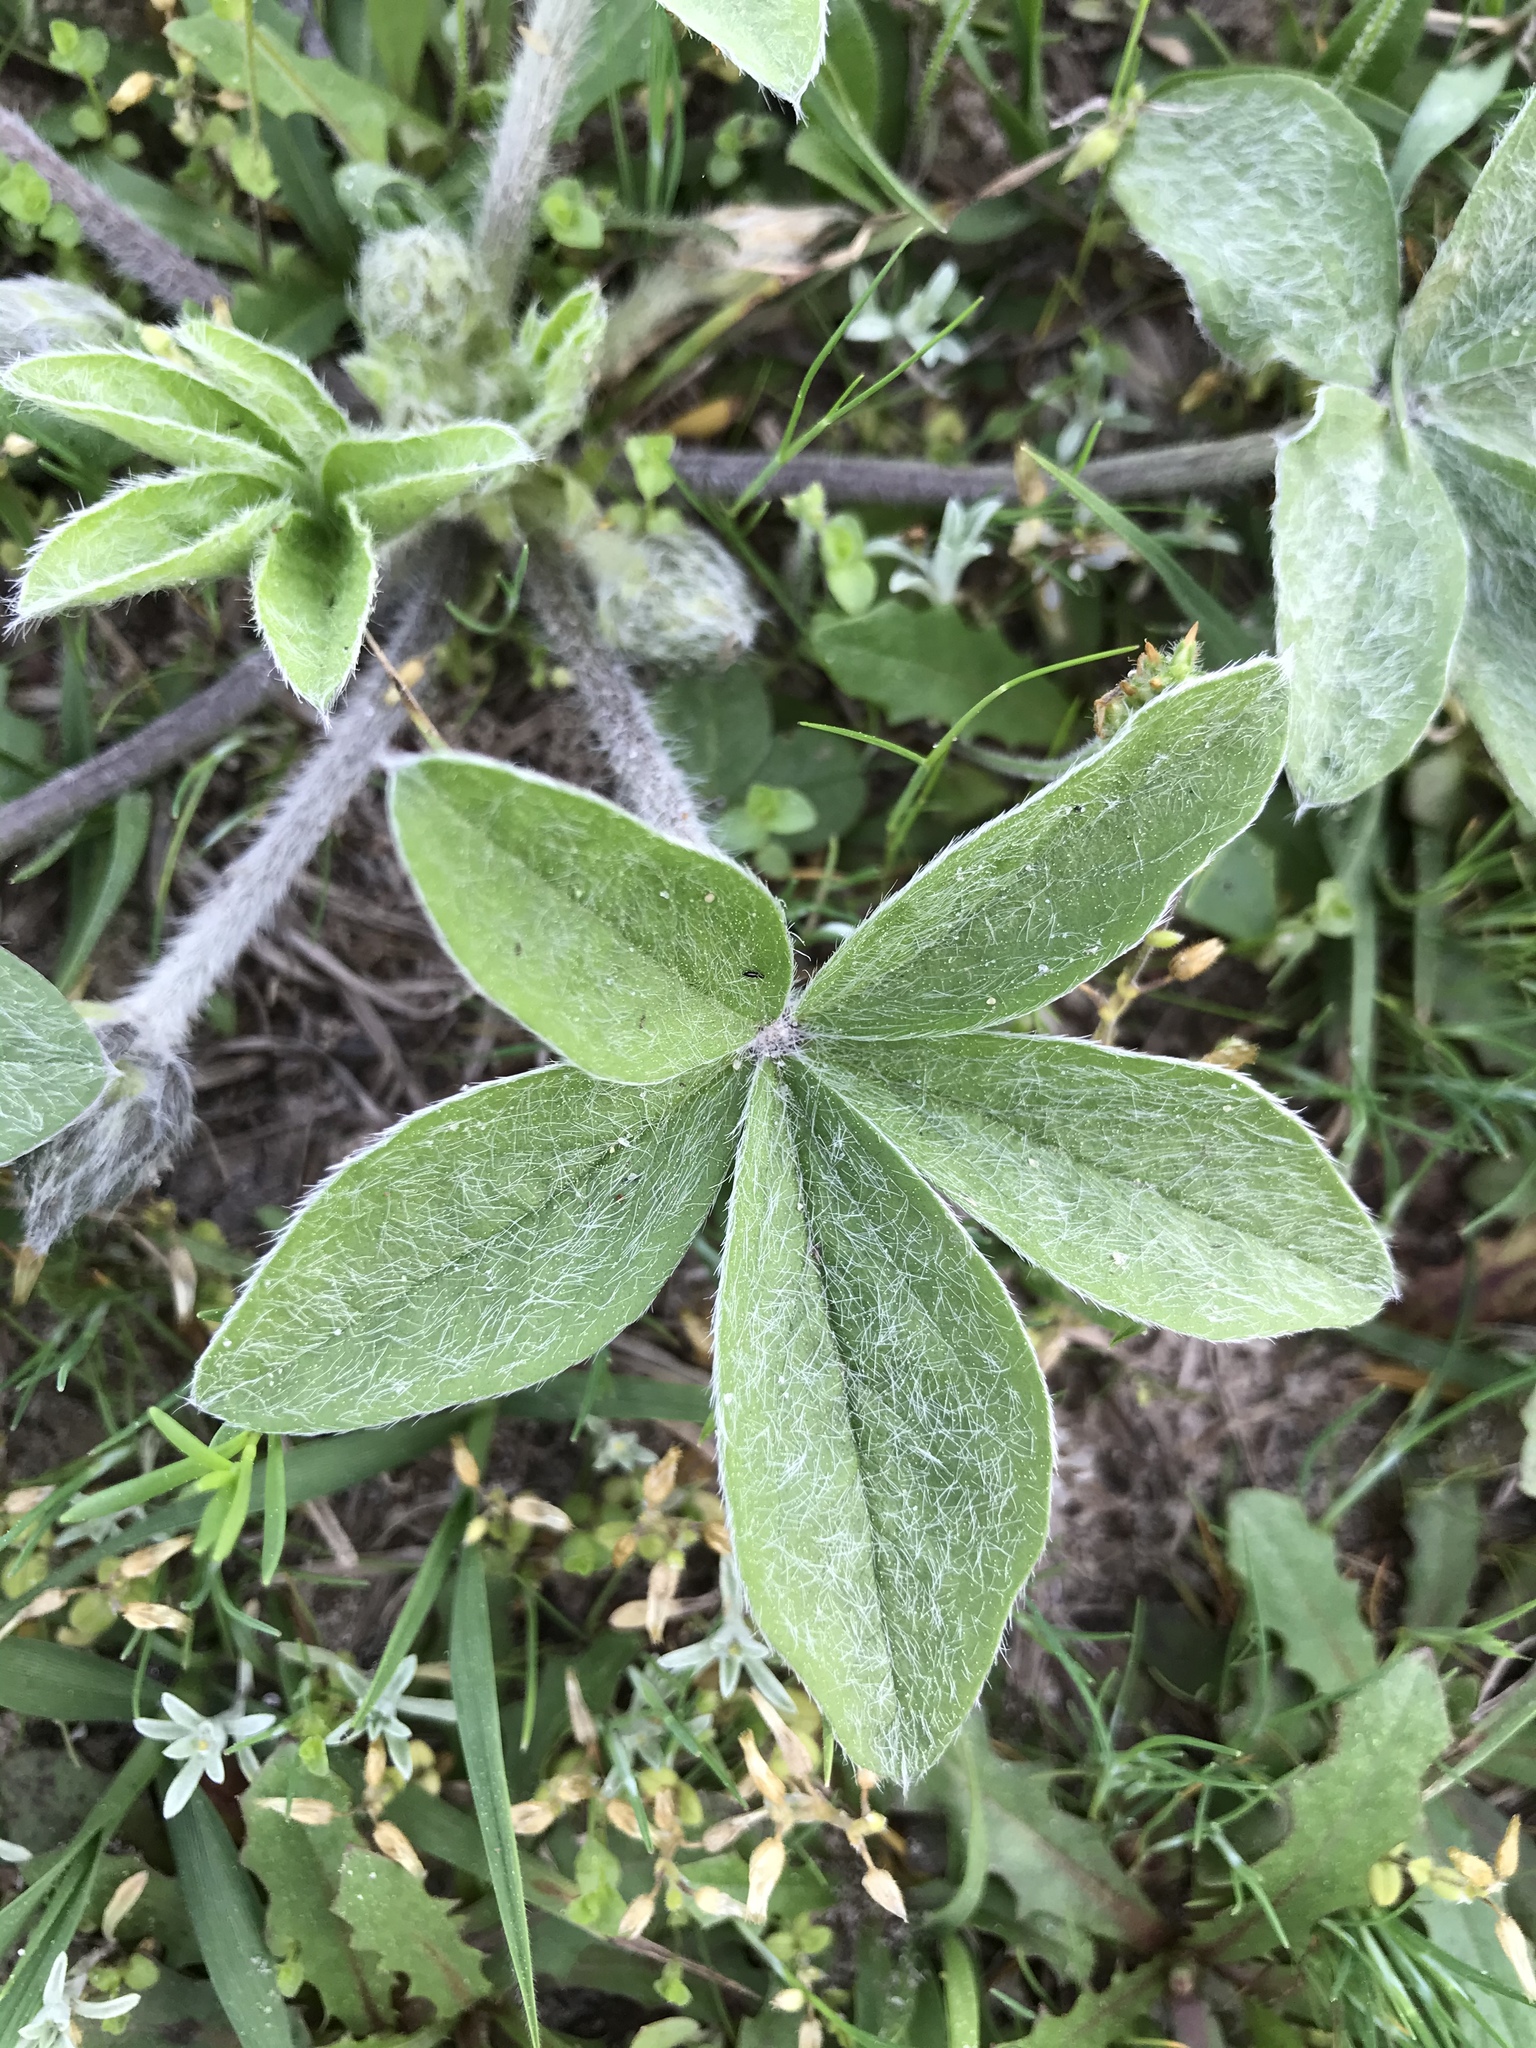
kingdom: Plantae
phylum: Tracheophyta
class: Magnoliopsida
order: Fabales
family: Fabaceae
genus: Pediomelum
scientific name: Pediomelum hypogaeum
